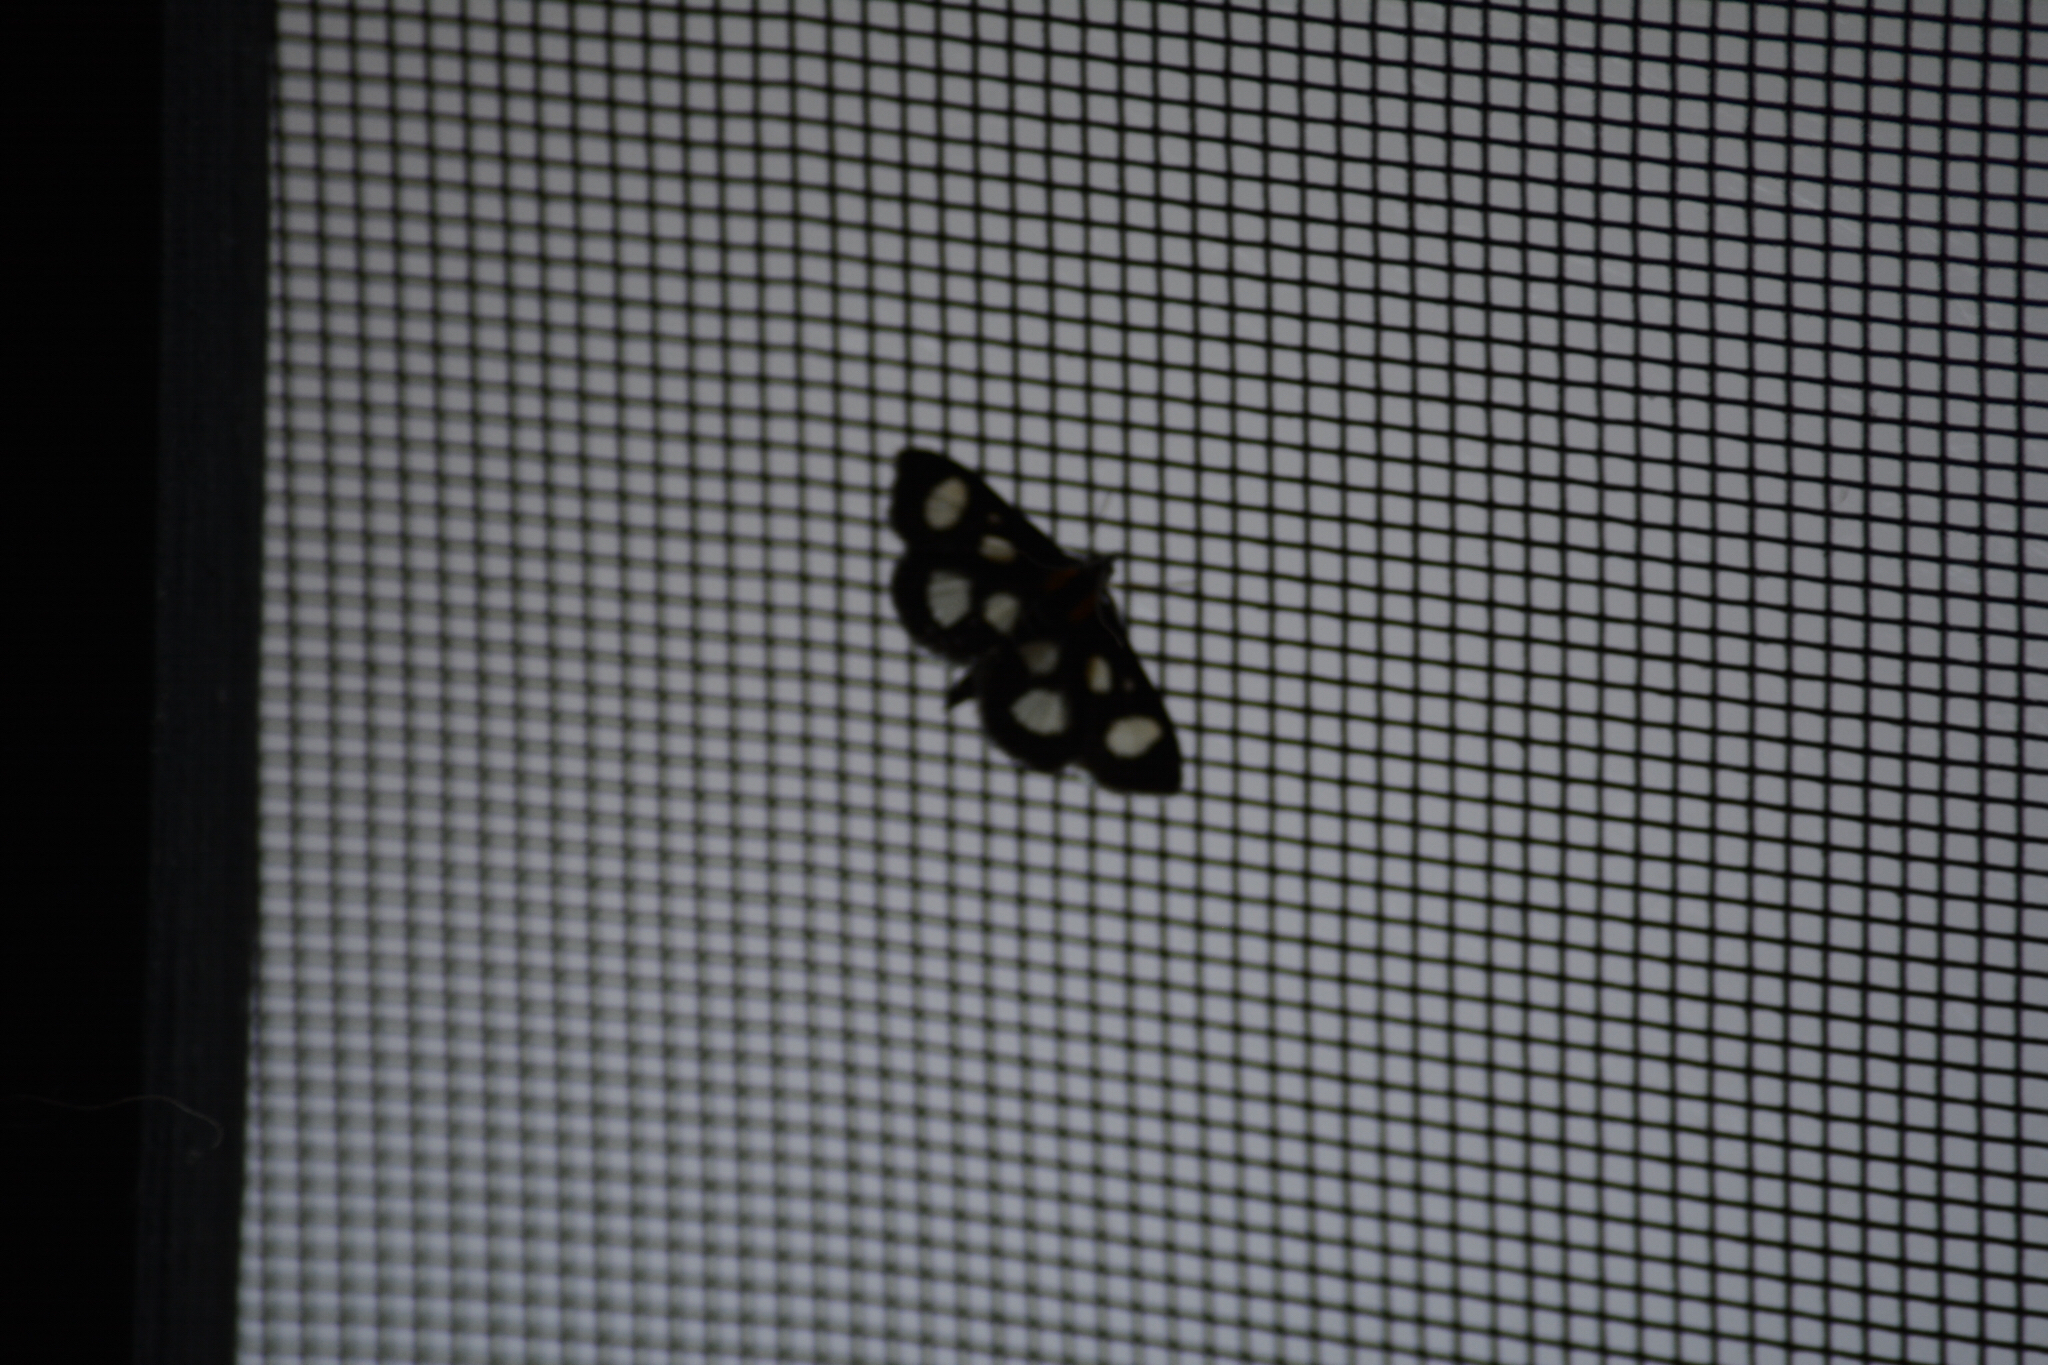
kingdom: Animalia
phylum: Arthropoda
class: Insecta
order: Lepidoptera
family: Crambidae
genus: Anania
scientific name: Anania funebris
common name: White-spotted sable moth
